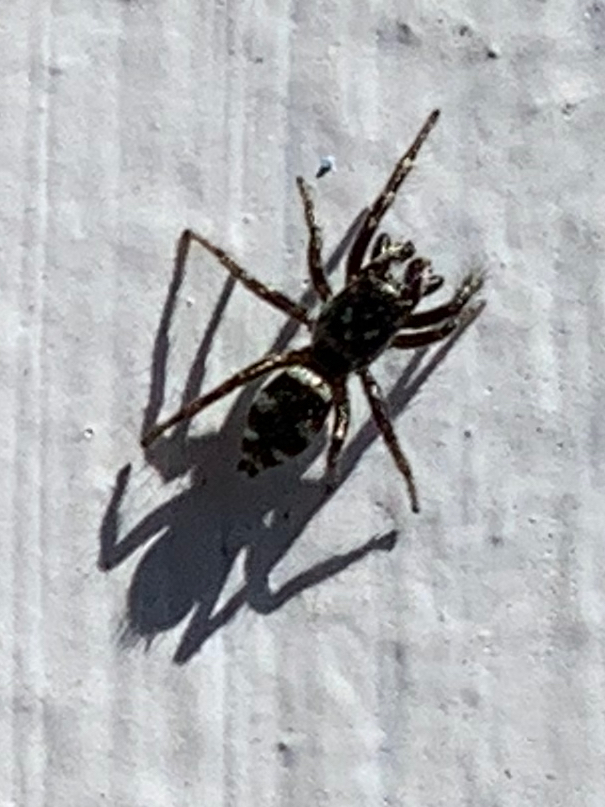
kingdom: Animalia
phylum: Arthropoda
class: Arachnida
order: Araneae
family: Salticidae
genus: Salticus
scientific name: Salticus scenicus
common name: Zebra jumper
